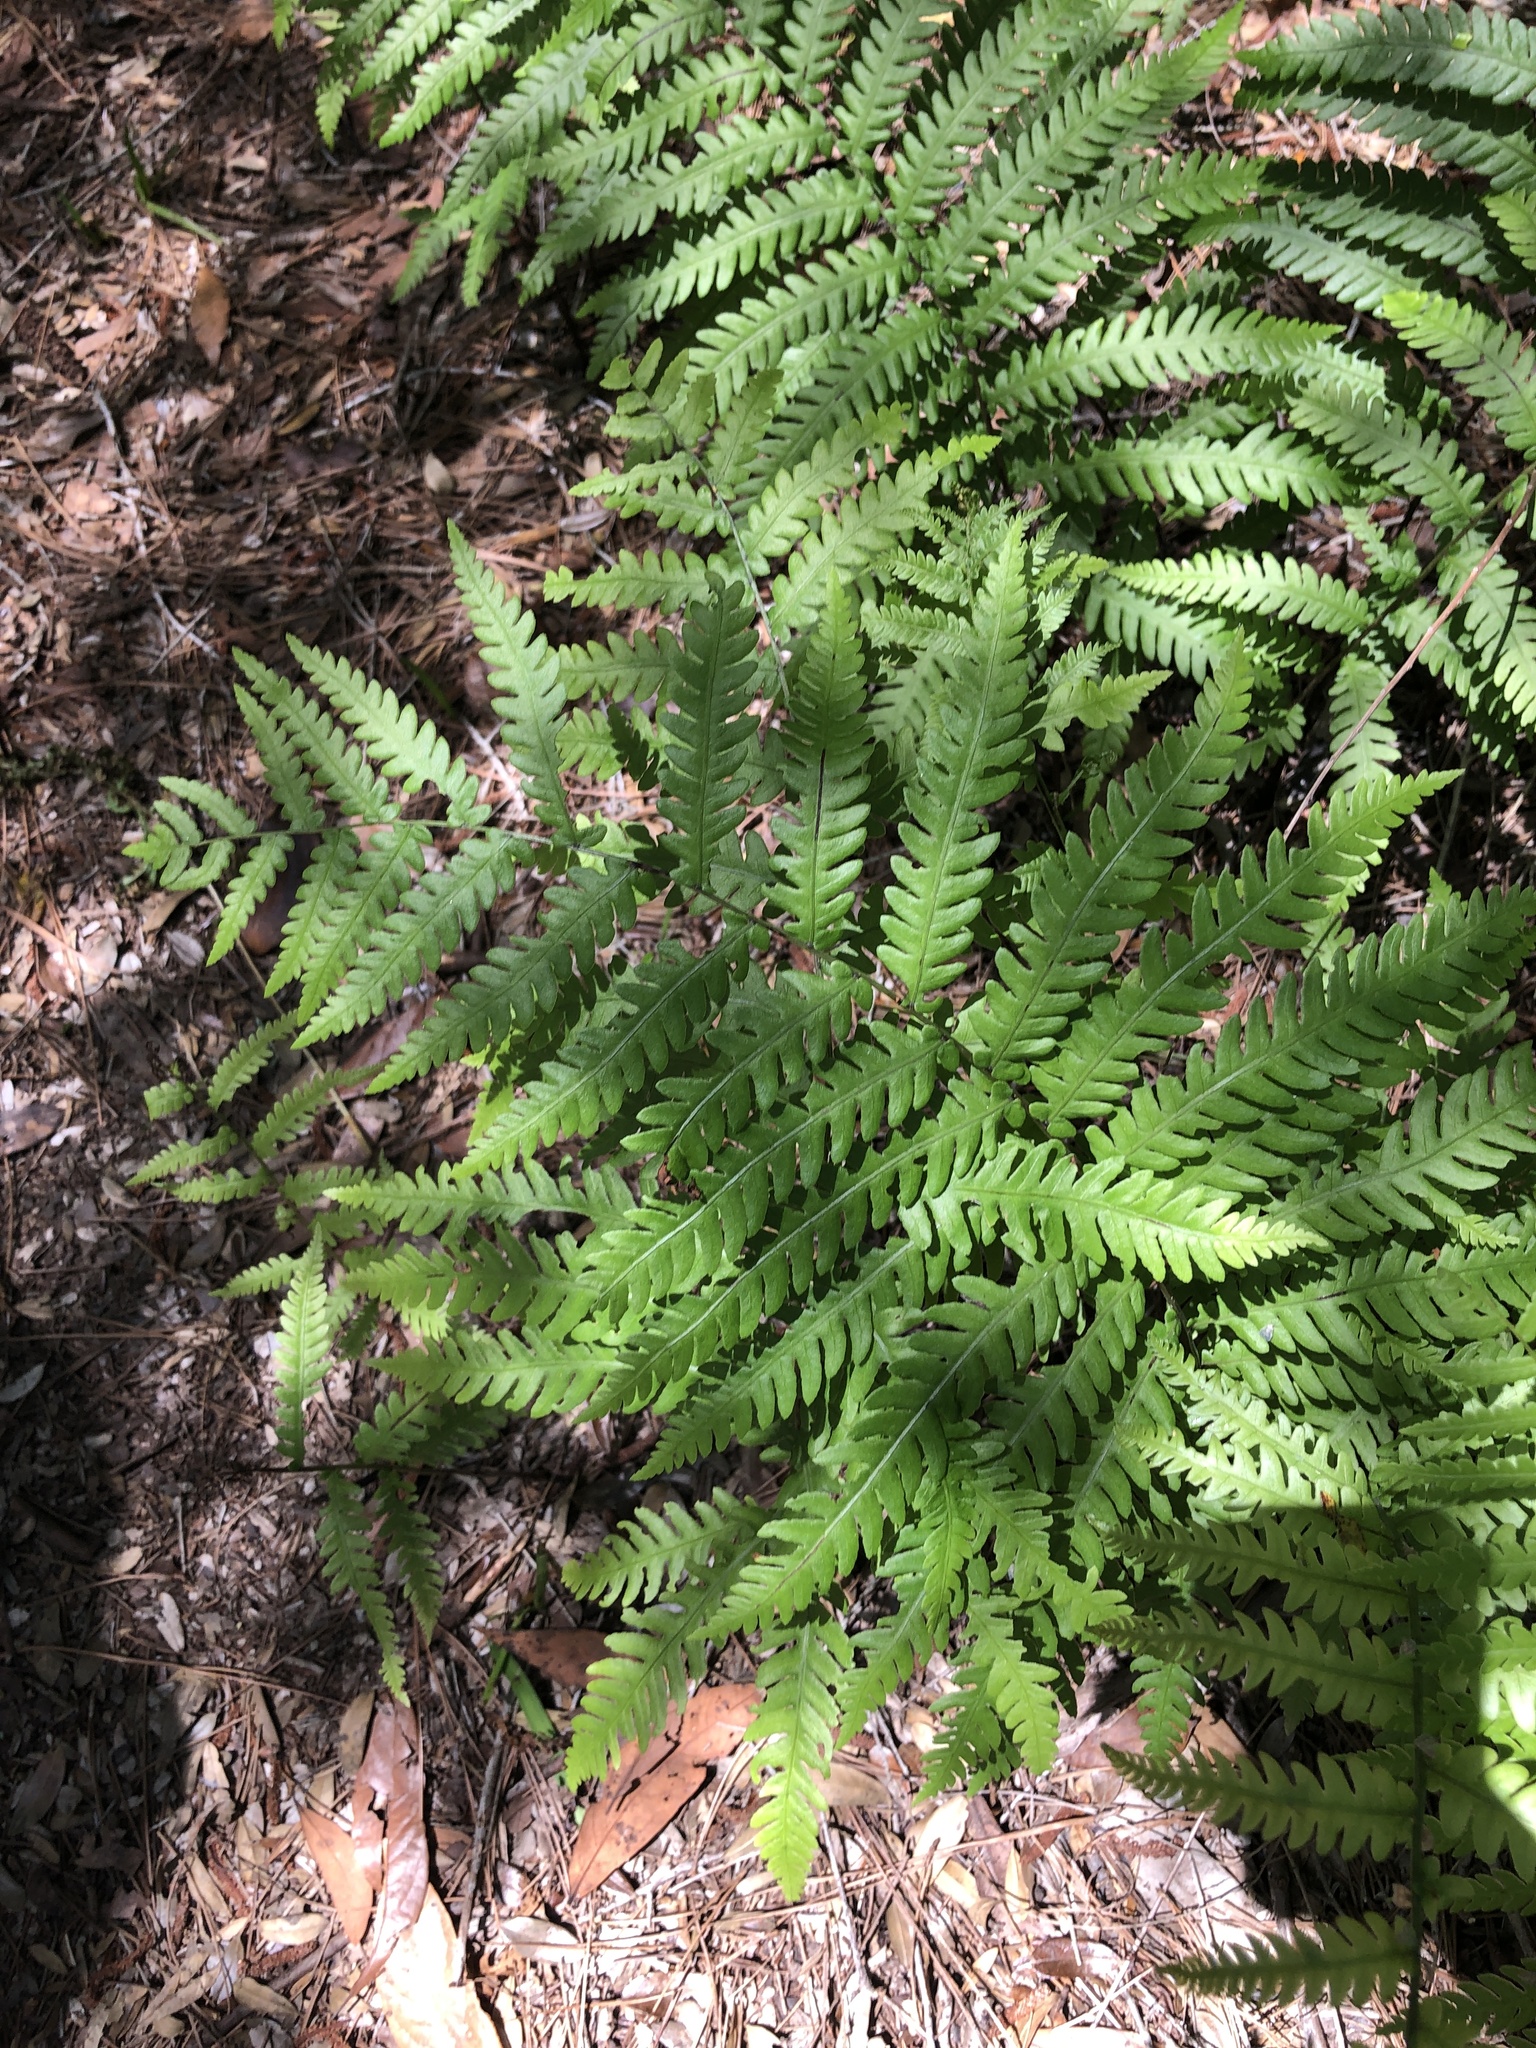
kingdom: Plantae
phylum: Tracheophyta
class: Polypodiopsida
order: Polypodiales
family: Blechnaceae
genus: Anchistea
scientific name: Anchistea virginica
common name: Virginia chain fern
